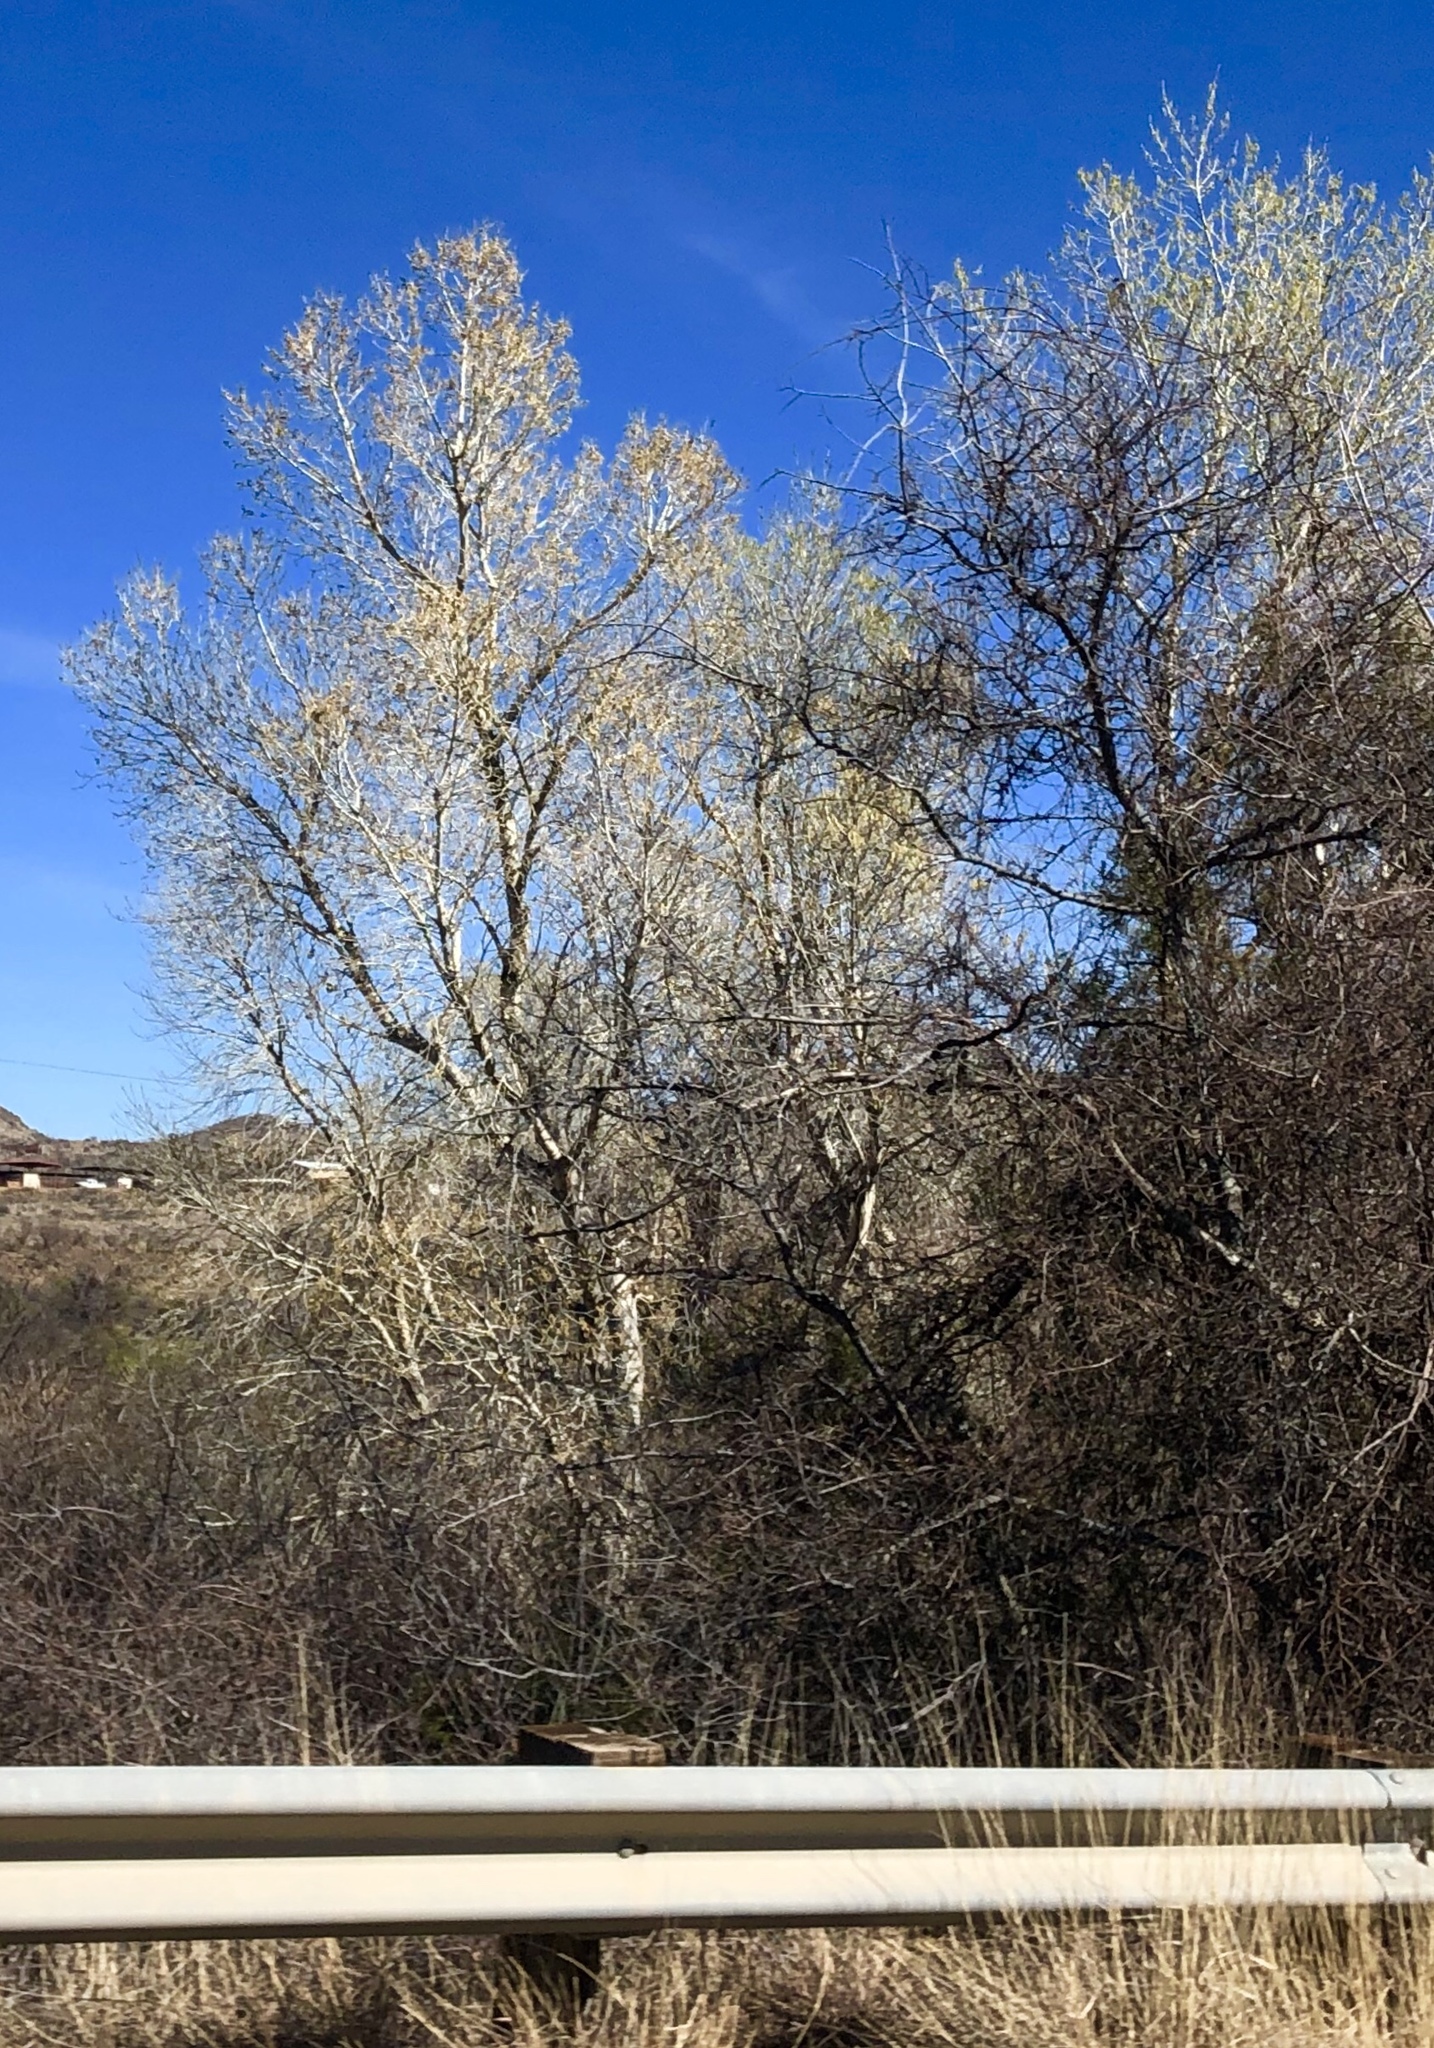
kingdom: Plantae
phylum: Tracheophyta
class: Magnoliopsida
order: Malpighiales
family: Salicaceae
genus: Populus
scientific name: Populus fremontii
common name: Fremont's cottonwood
